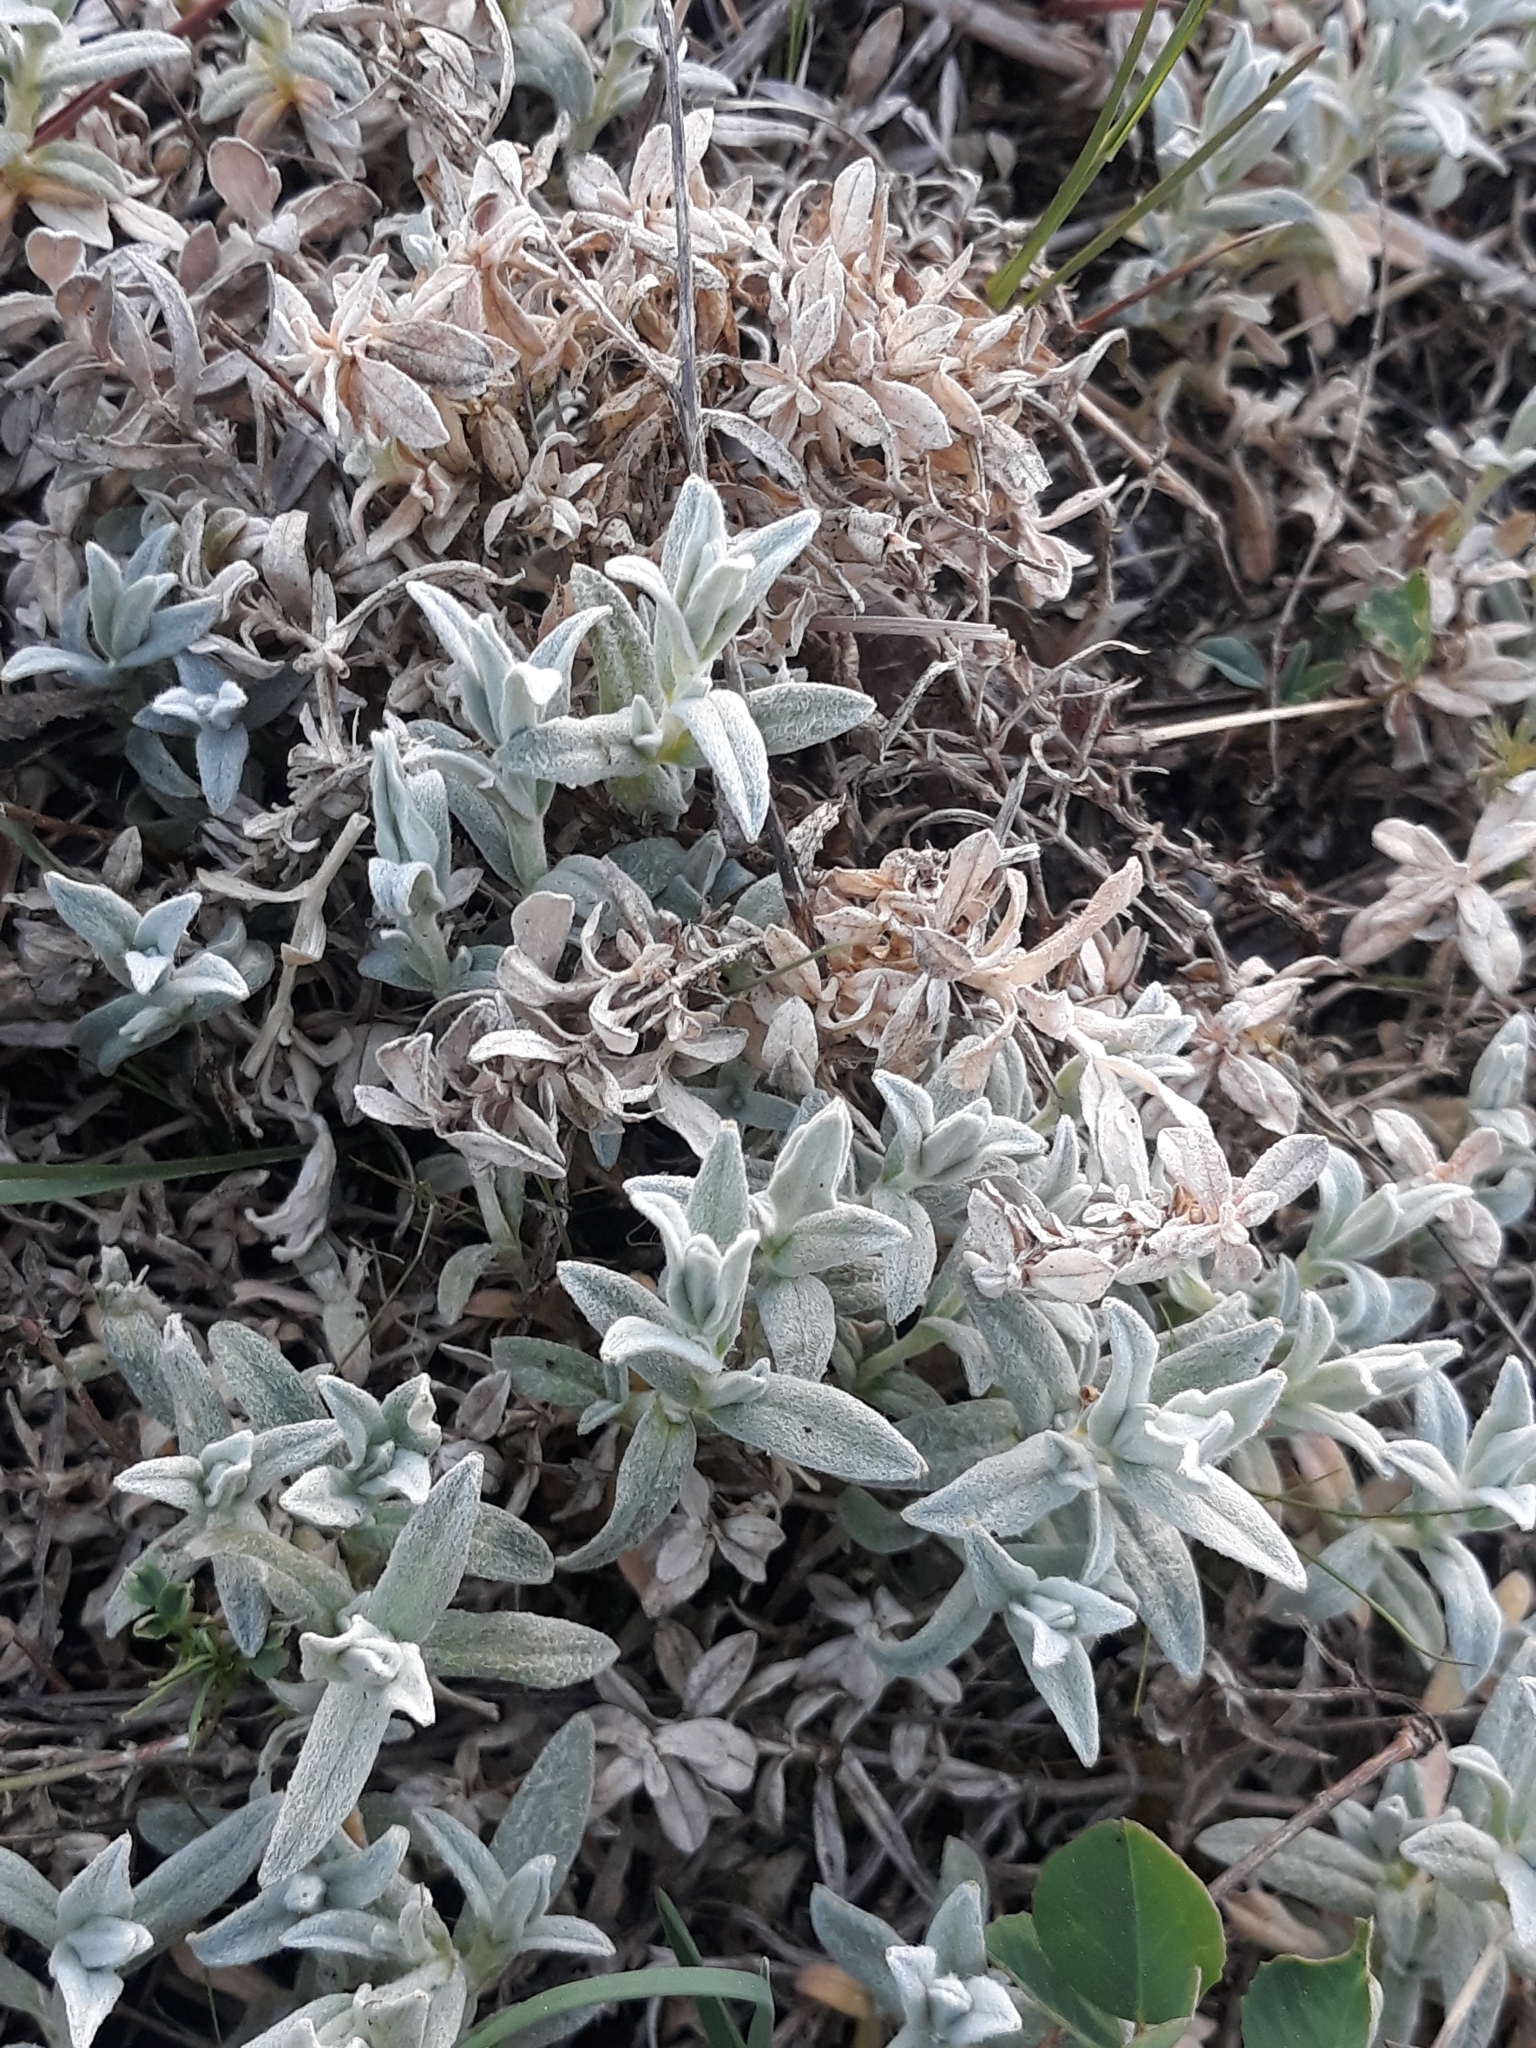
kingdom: Plantae
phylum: Tracheophyta
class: Magnoliopsida
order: Caryophyllales
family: Caryophyllaceae
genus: Cerastium
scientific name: Cerastium tomentosum
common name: Snow-in-summer
